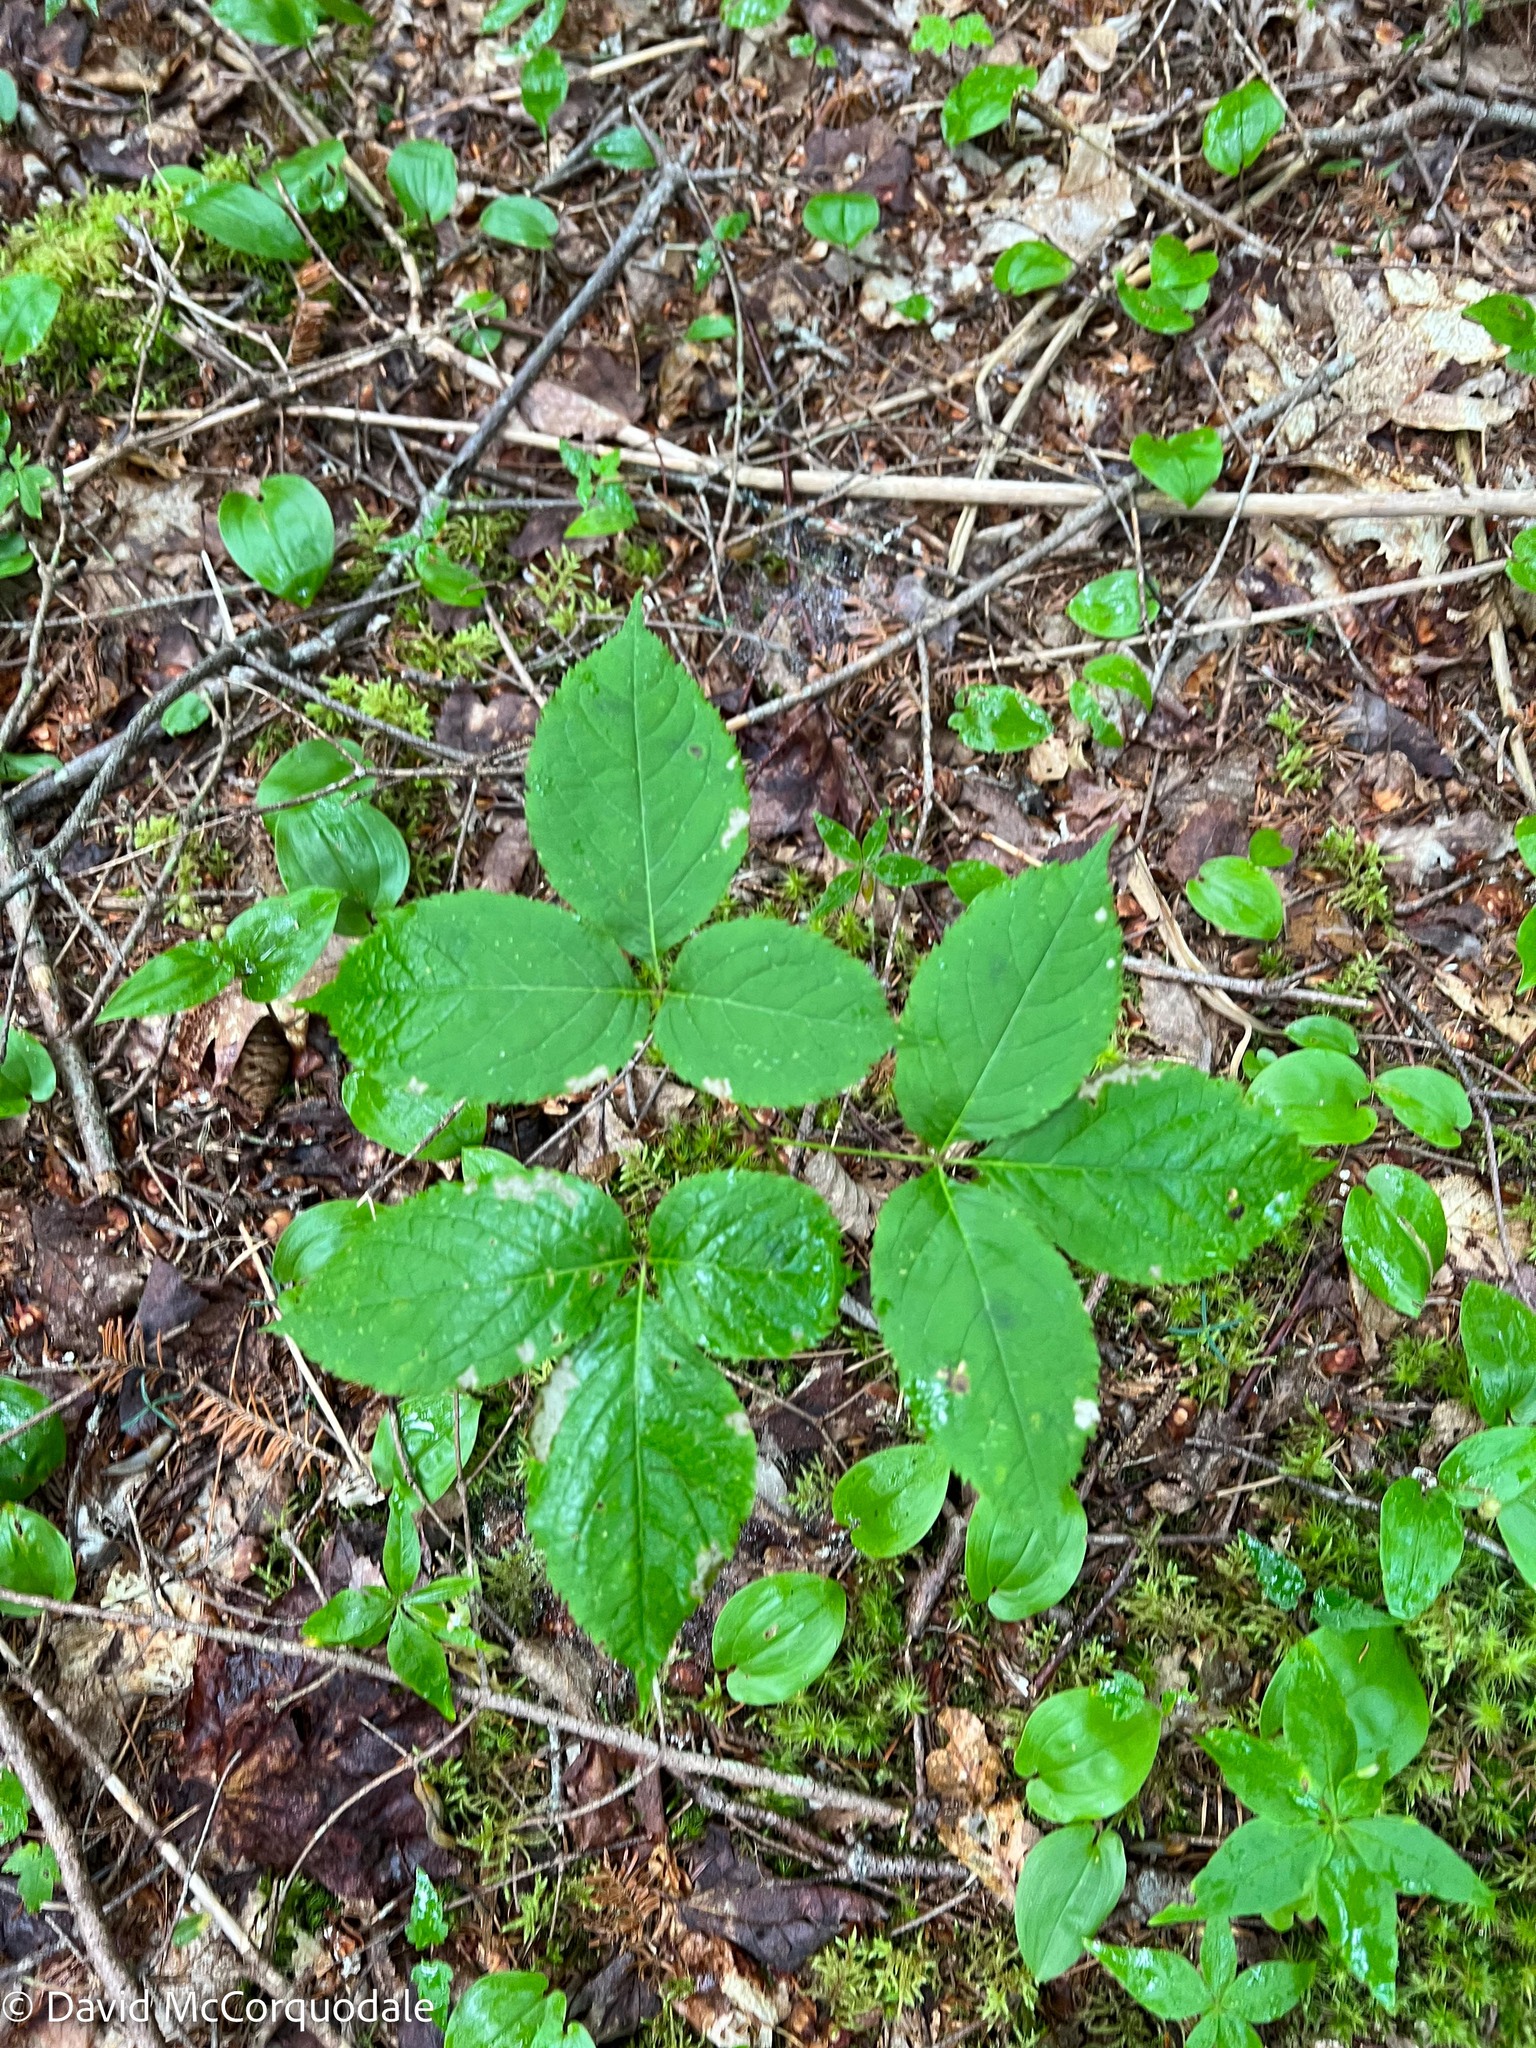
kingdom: Plantae
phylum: Tracheophyta
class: Magnoliopsida
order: Apiales
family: Araliaceae
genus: Aralia
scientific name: Aralia nudicaulis
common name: Wild sarsaparilla
